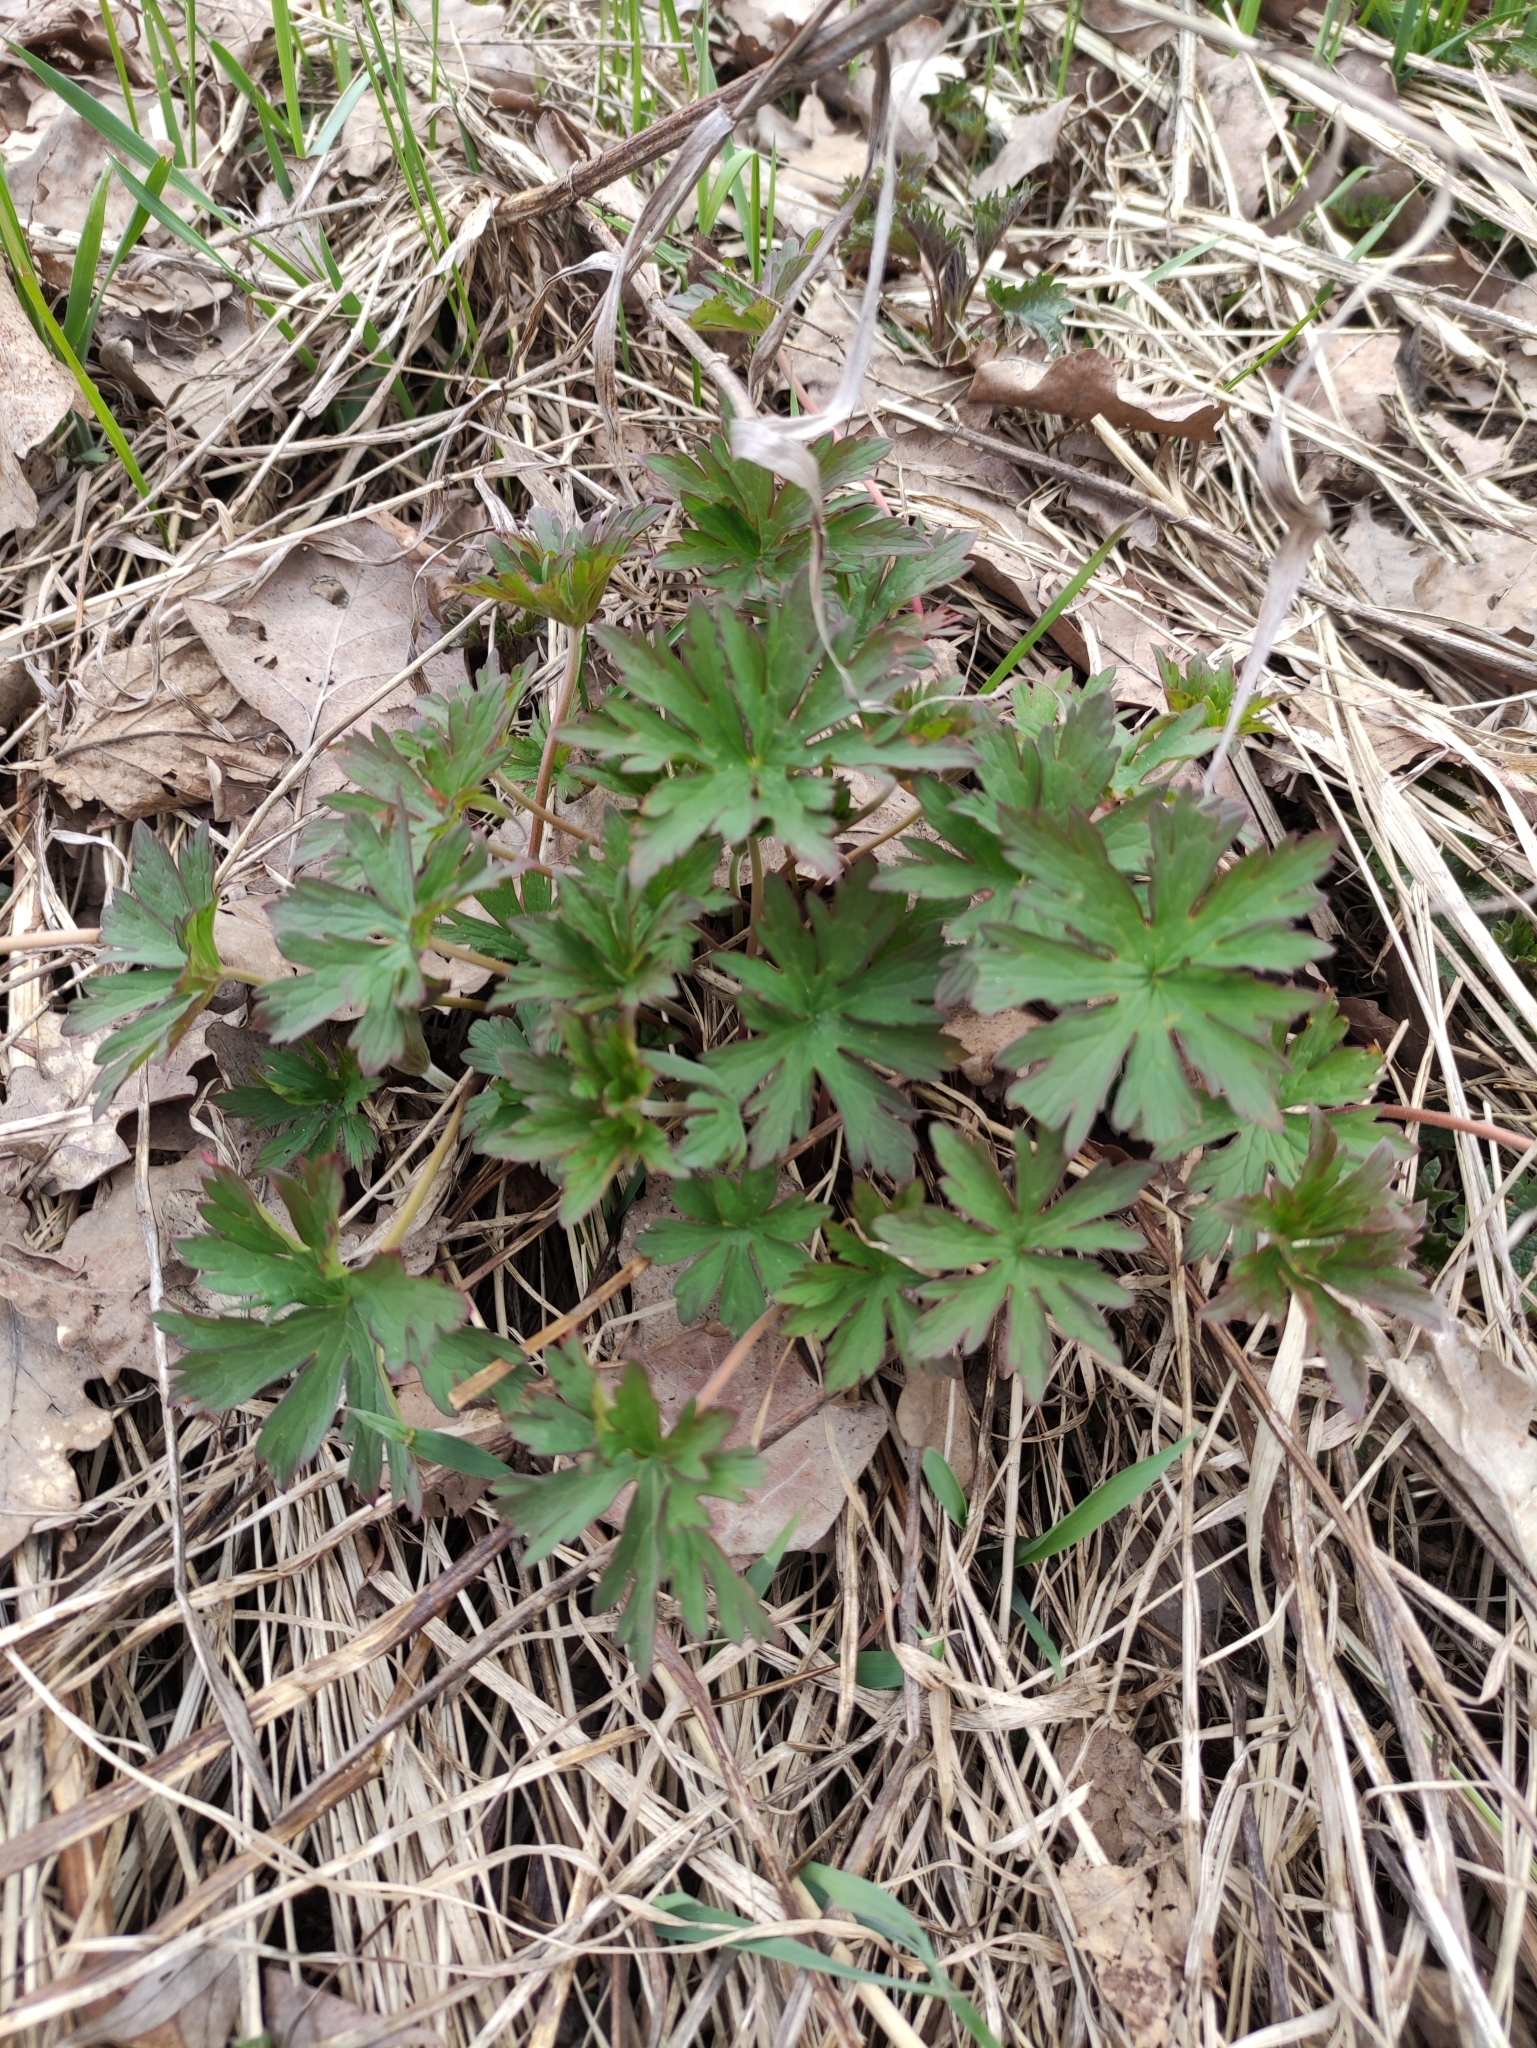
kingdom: Plantae
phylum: Tracheophyta
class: Magnoliopsida
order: Geraniales
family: Geraniaceae
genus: Geranium
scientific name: Geranium pratense
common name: Meadow crane's-bill
